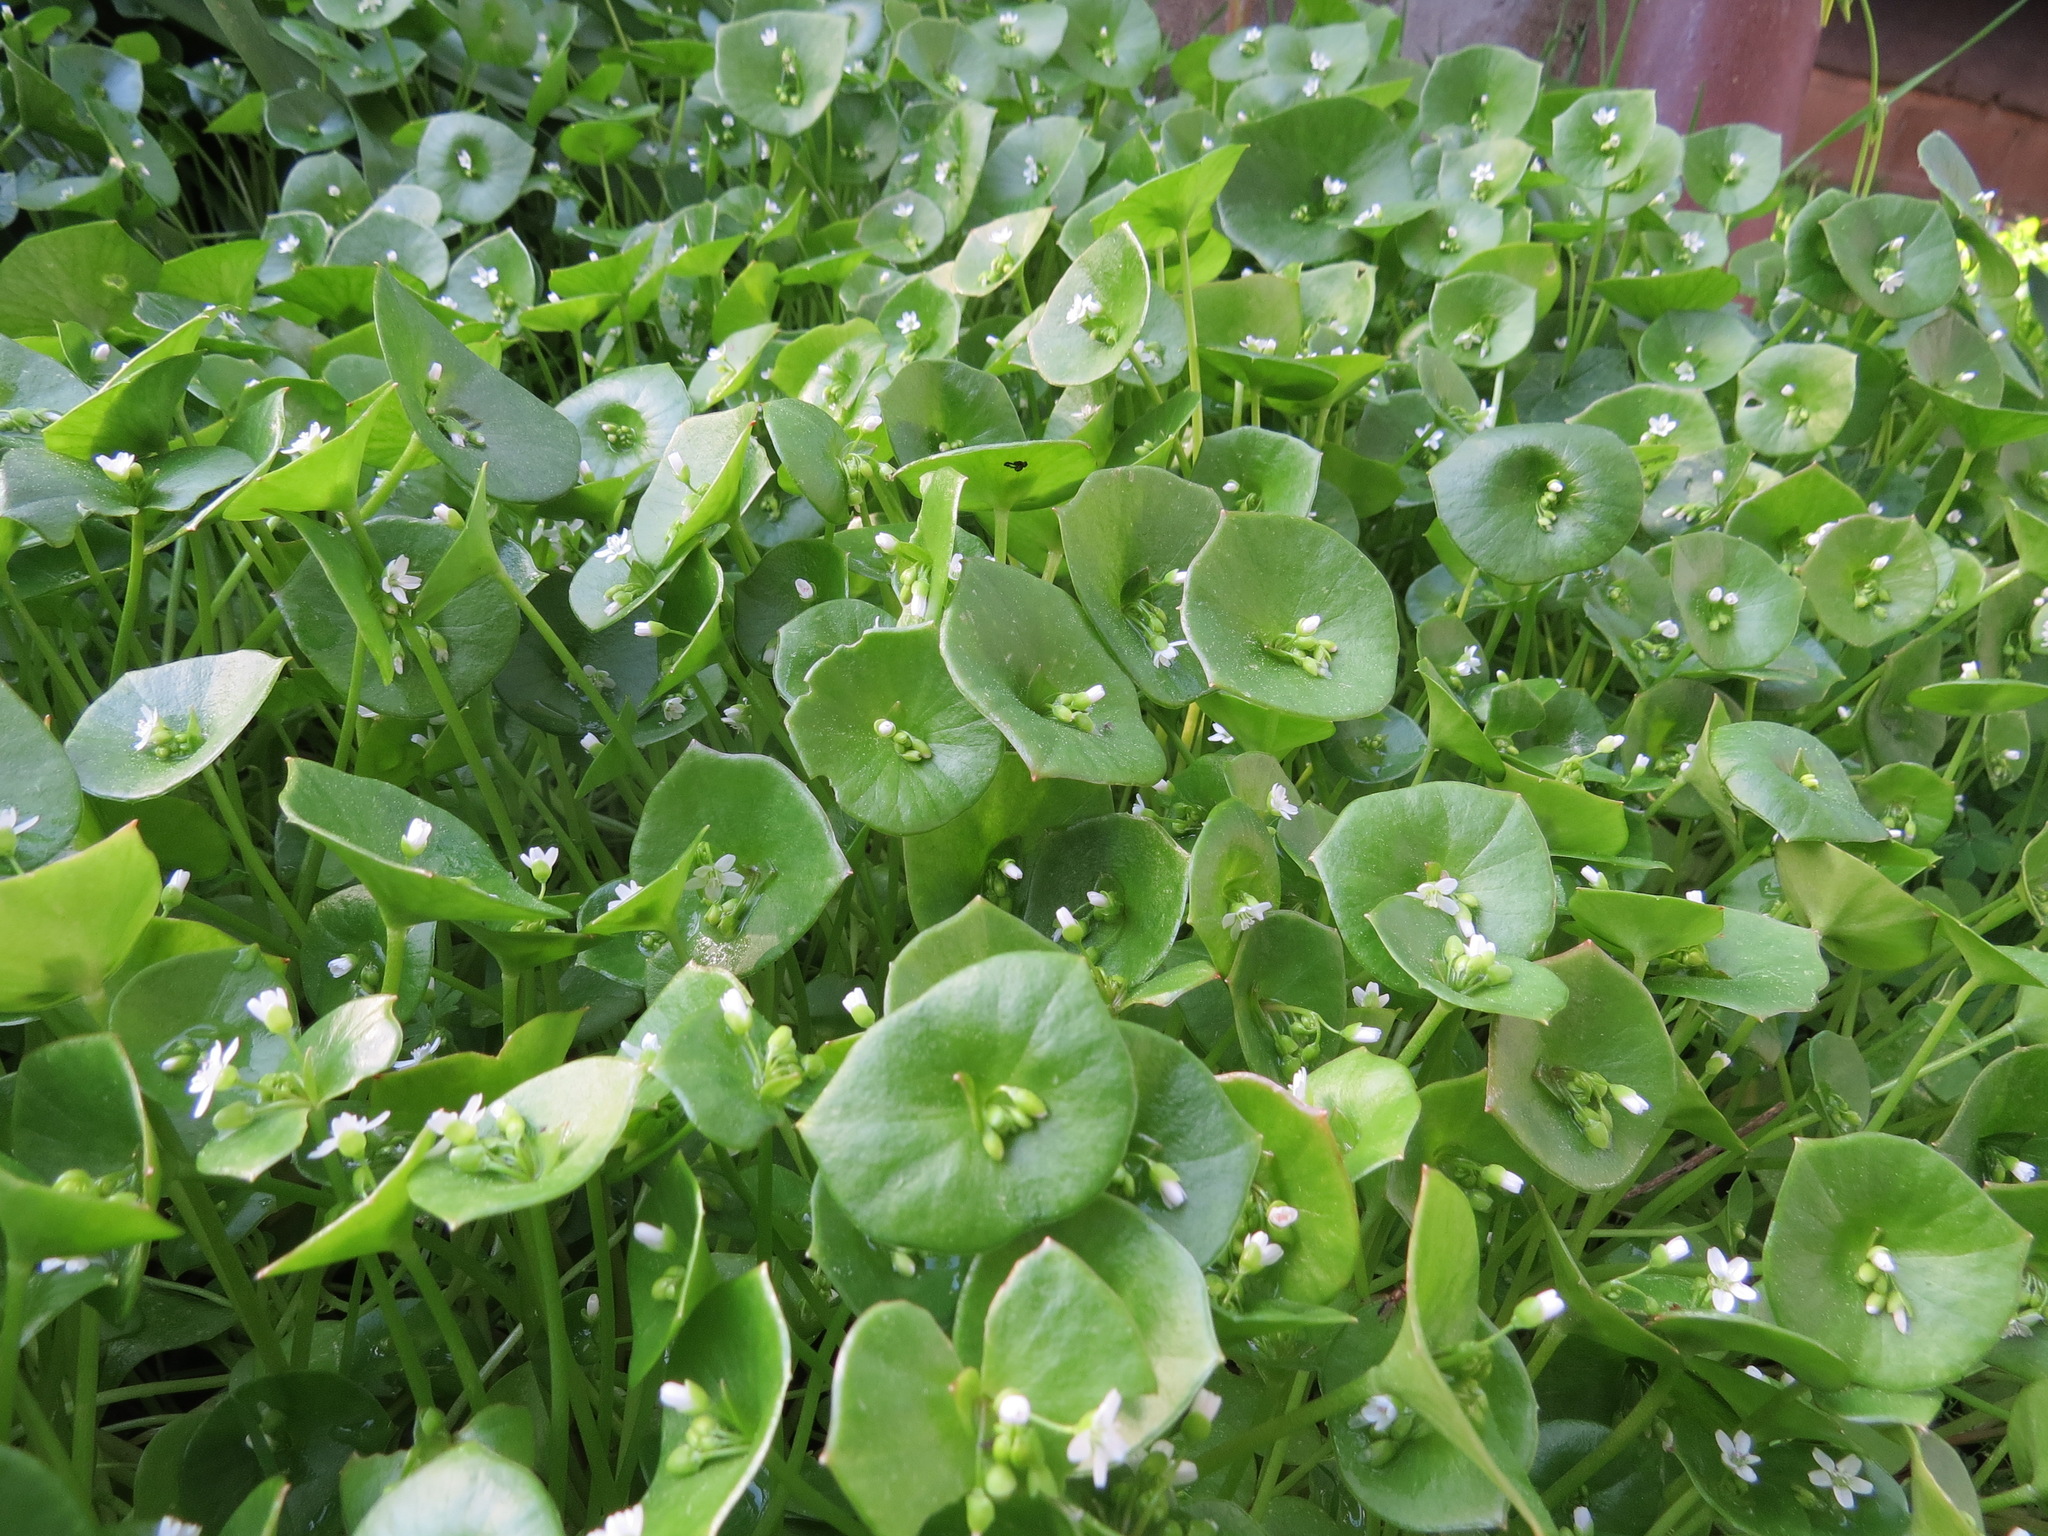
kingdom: Plantae
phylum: Tracheophyta
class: Magnoliopsida
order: Caryophyllales
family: Montiaceae
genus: Claytonia
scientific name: Claytonia perfoliata
